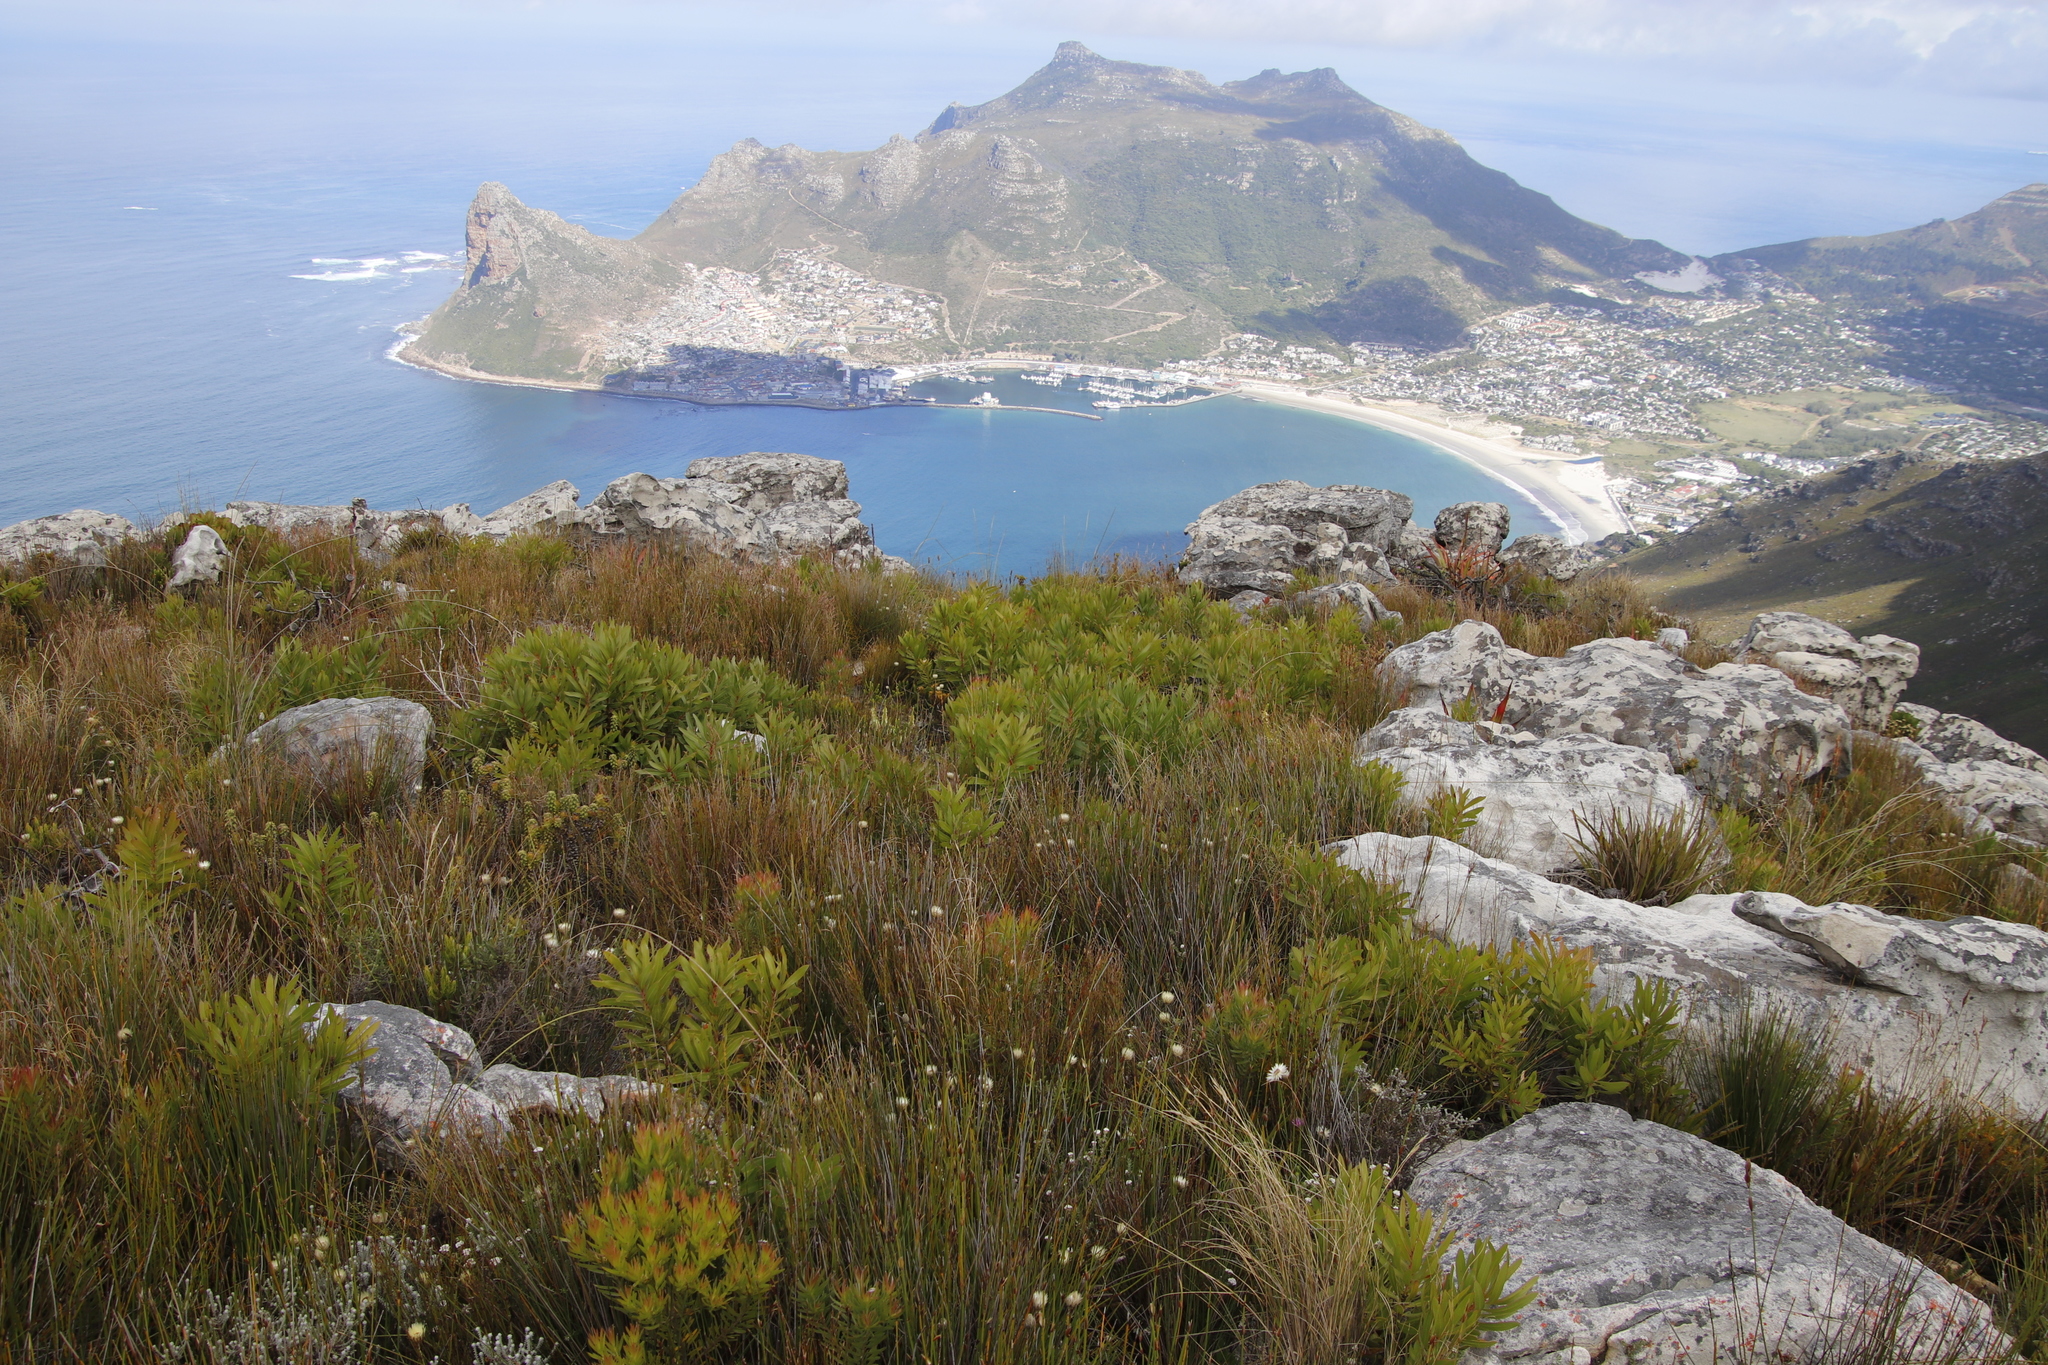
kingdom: Plantae
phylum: Tracheophyta
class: Magnoliopsida
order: Proteales
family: Proteaceae
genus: Protea
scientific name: Protea lepidocarpodendron
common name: Black-bearded protea
